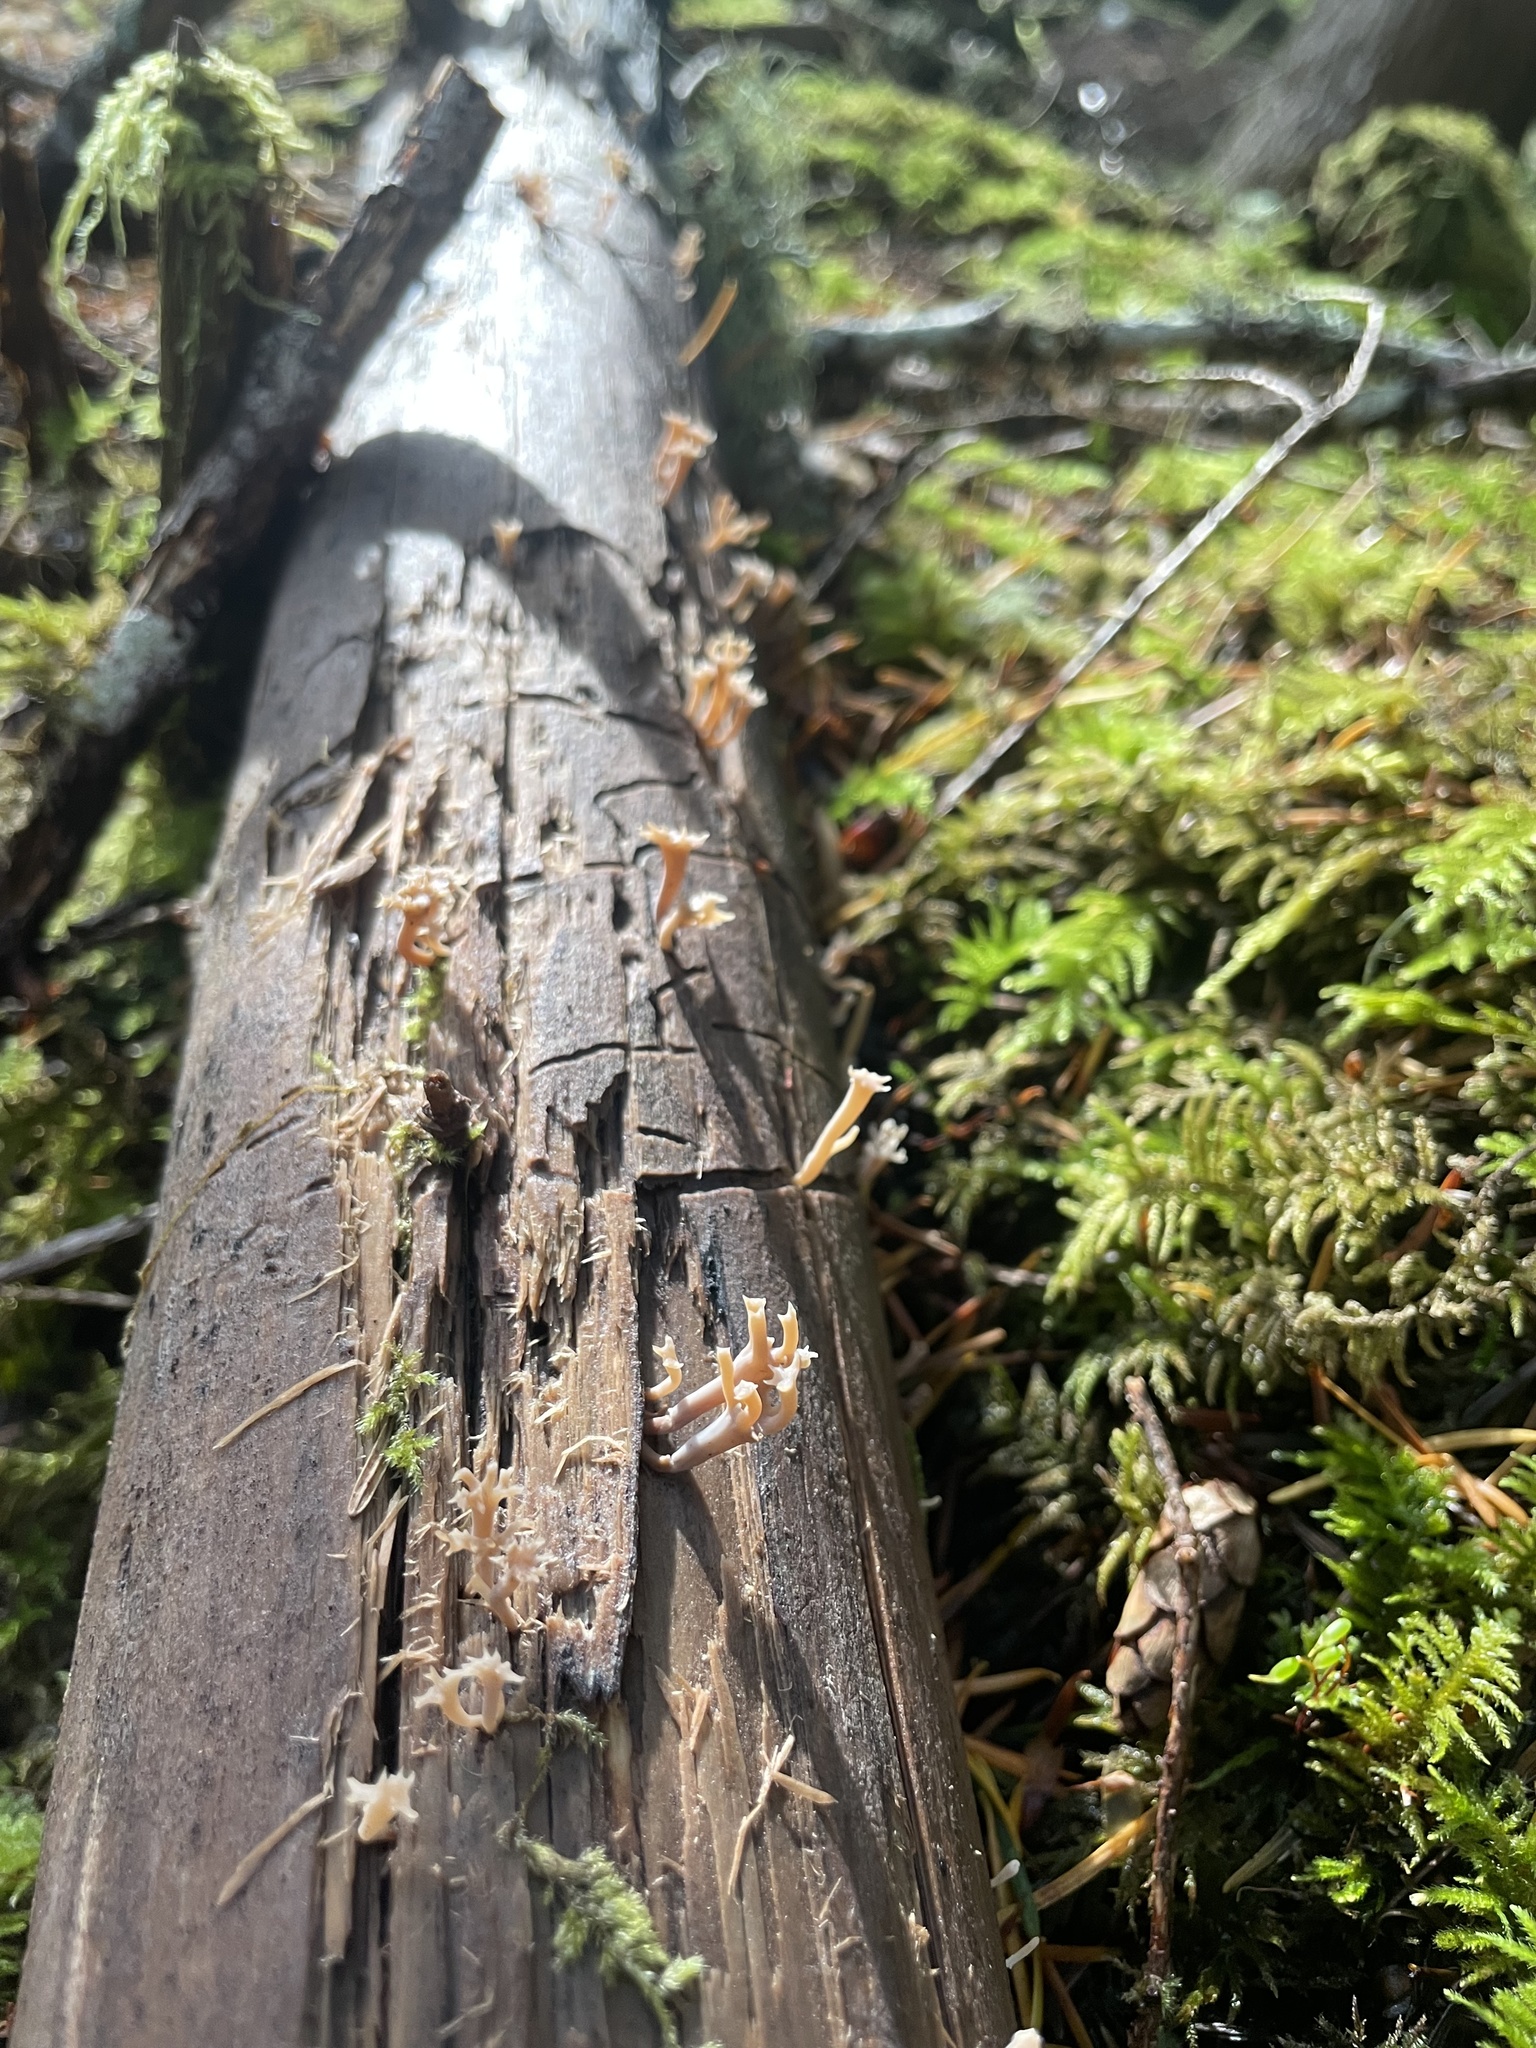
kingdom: Fungi
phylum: Basidiomycota
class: Agaricomycetes
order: Russulales
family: Auriscalpiaceae
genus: Artomyces
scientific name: Artomyces cristatus
